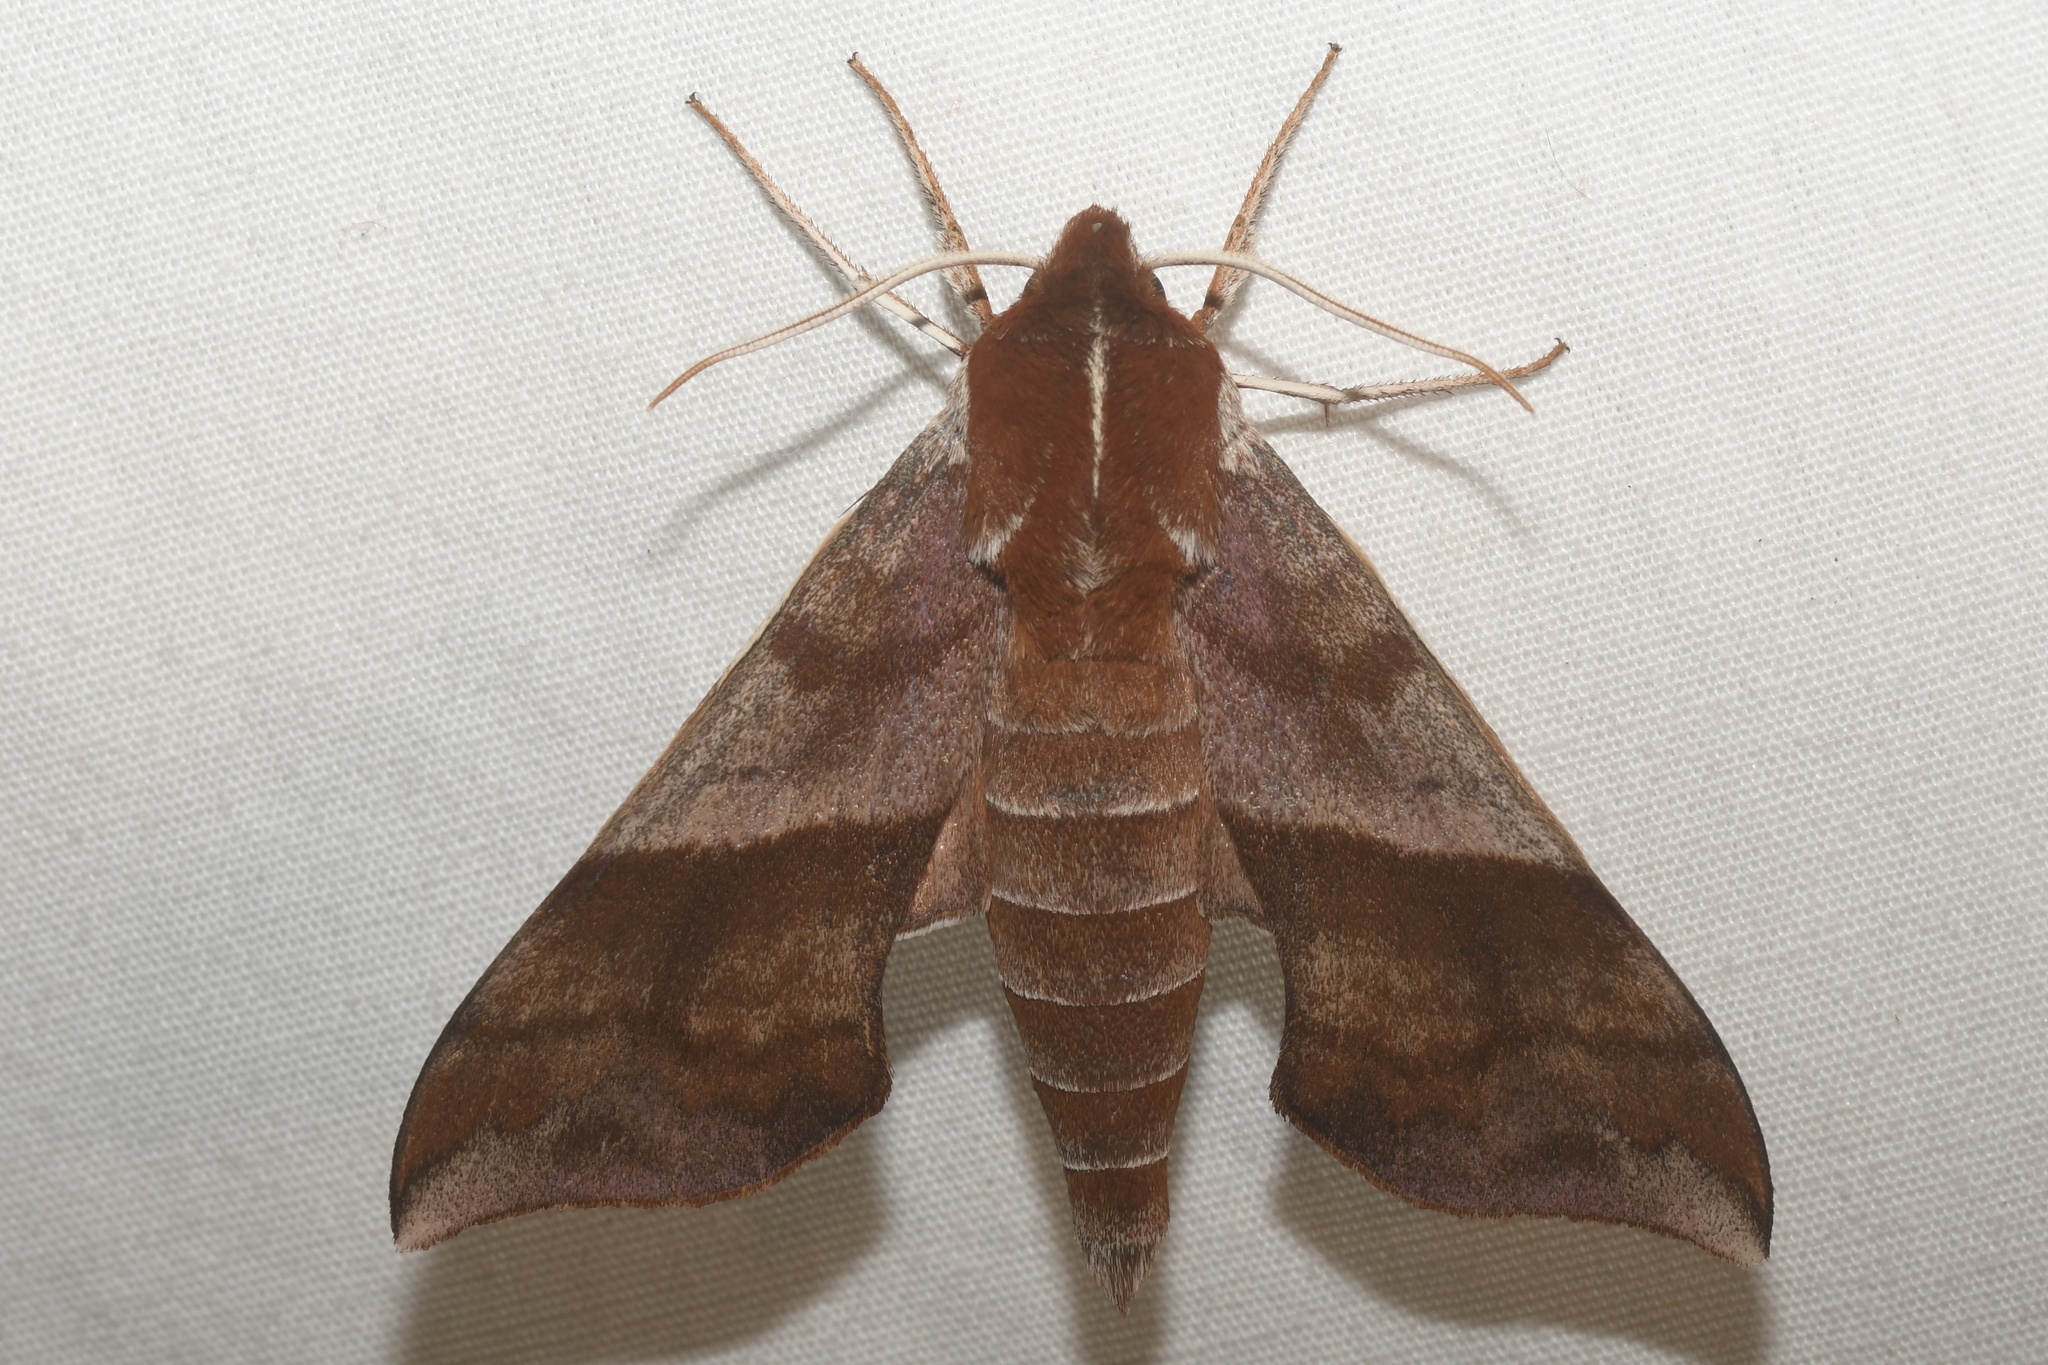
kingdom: Animalia
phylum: Arthropoda
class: Insecta
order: Lepidoptera
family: Sphingidae
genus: Darapsa
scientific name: Darapsa choerilus
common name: Azalea sphinx
